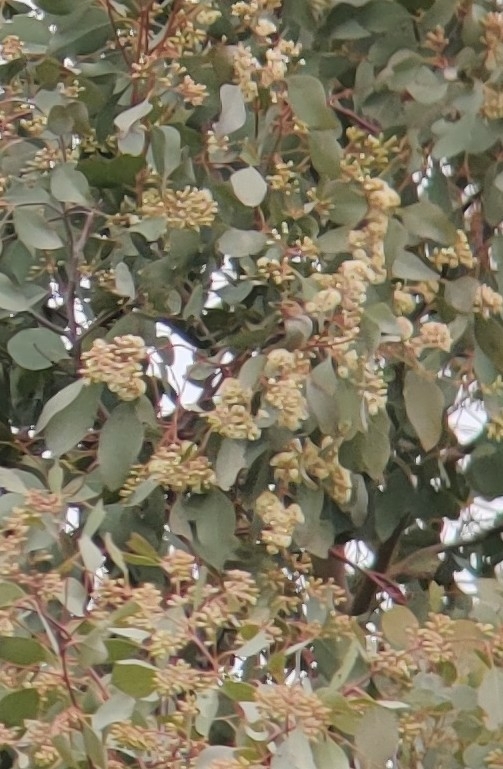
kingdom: Animalia
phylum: Chordata
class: Aves
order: Passeriformes
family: Meliphagidae
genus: Myzomela
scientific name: Myzomela sanguinolenta
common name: Scarlet myzomela
